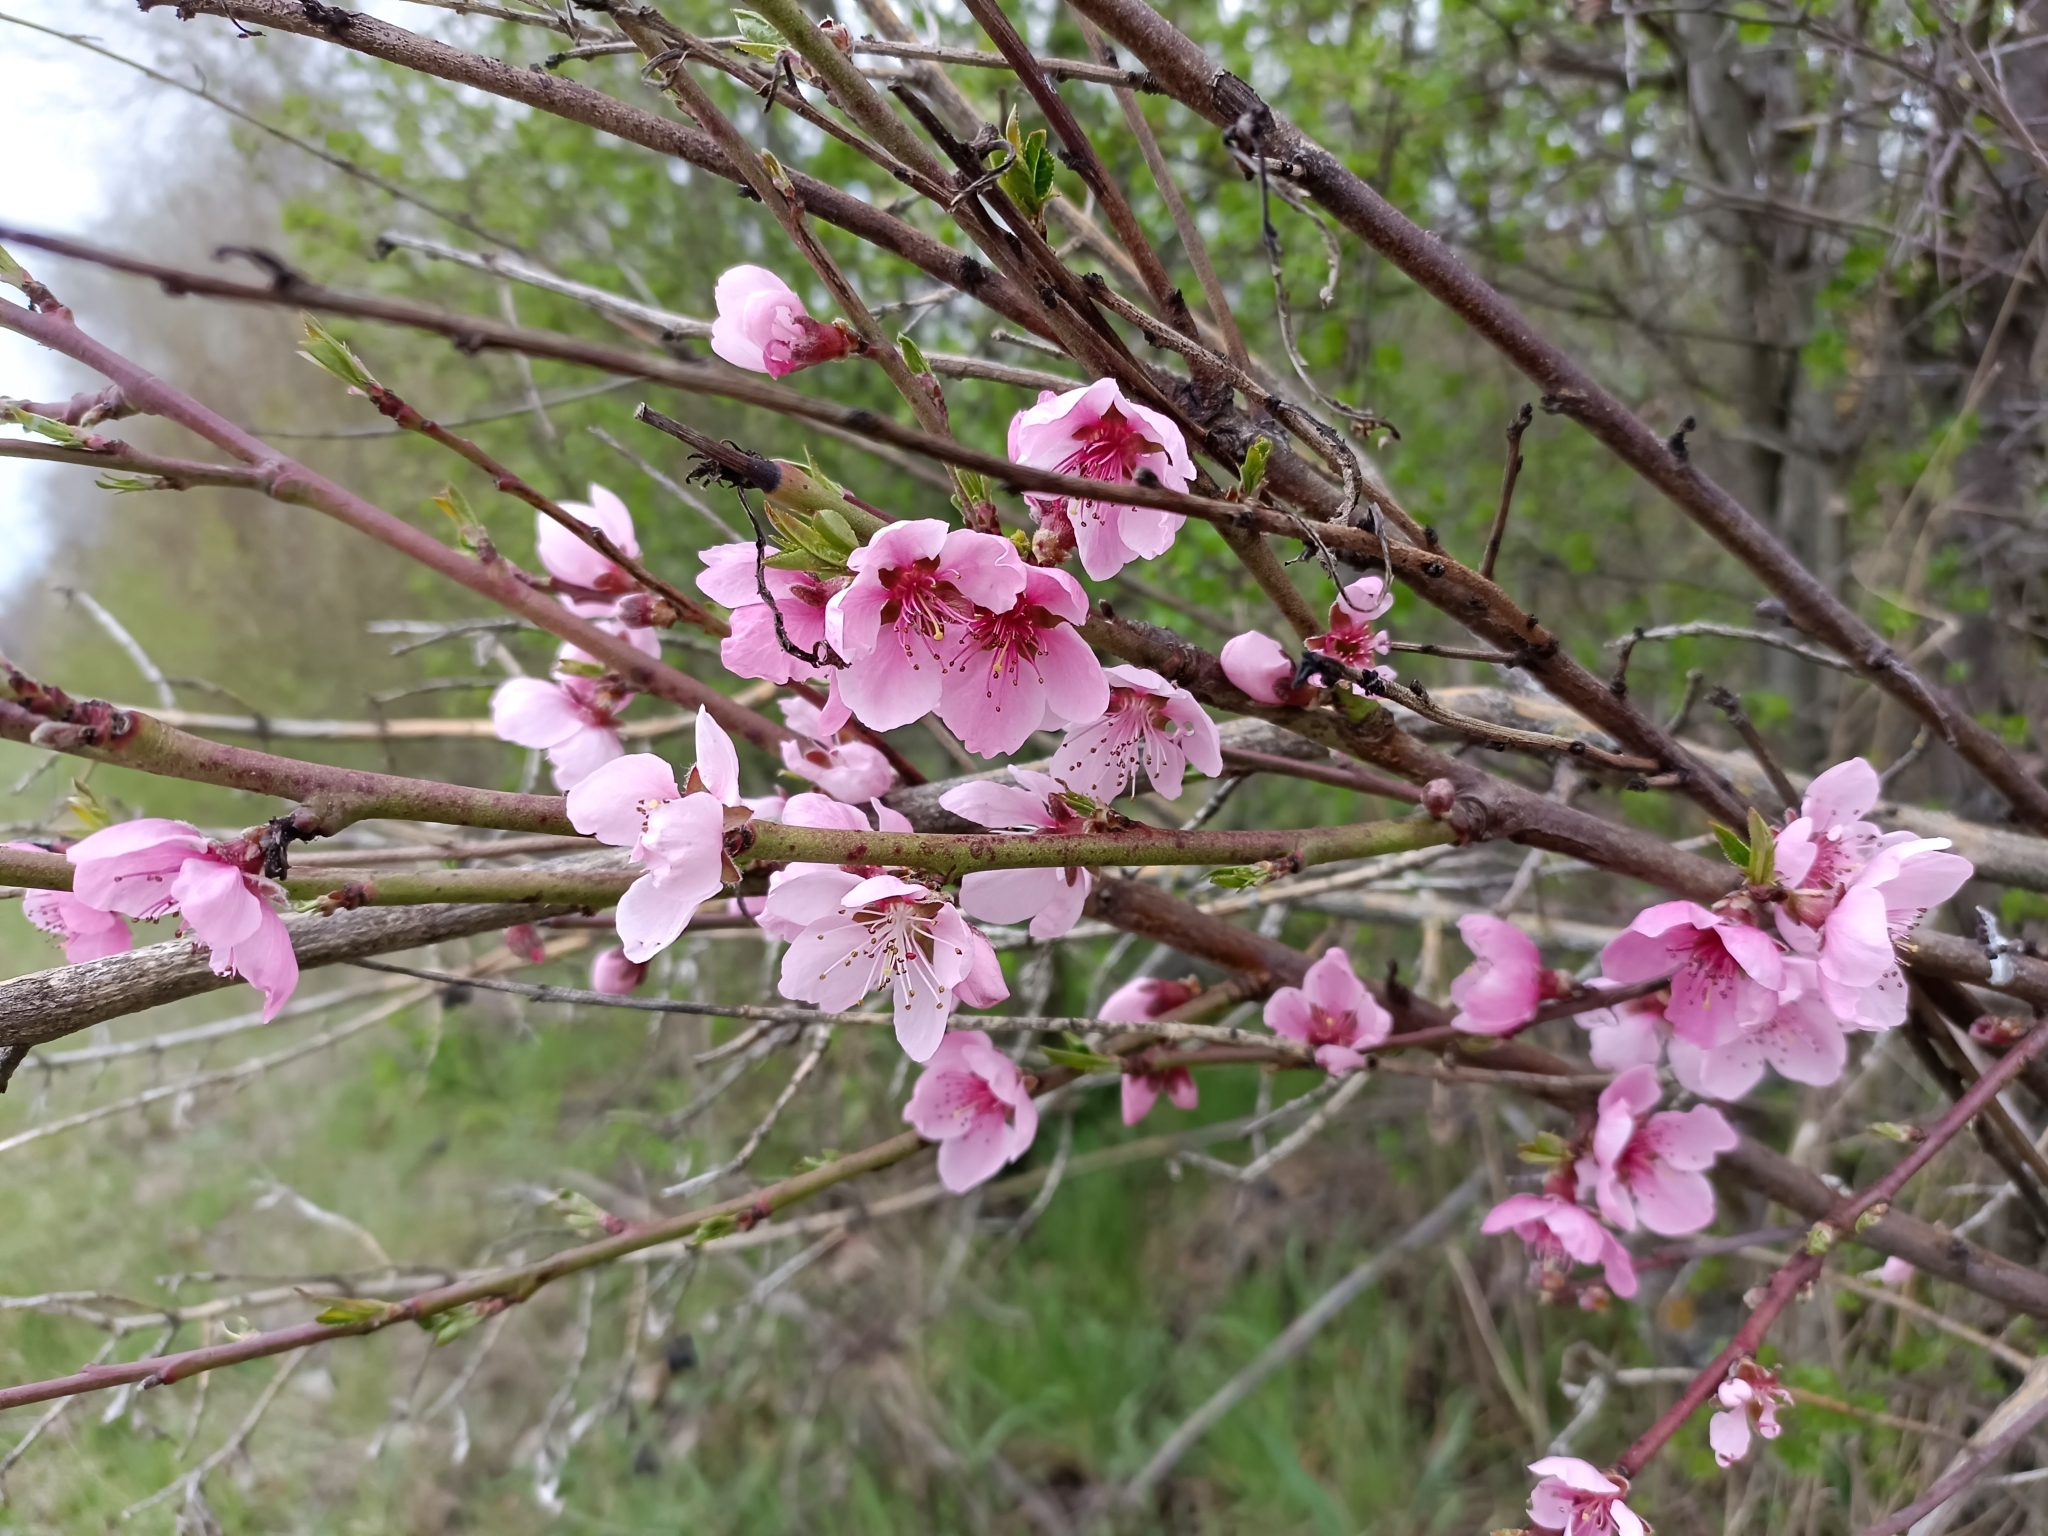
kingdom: Plantae
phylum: Tracheophyta
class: Magnoliopsida
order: Rosales
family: Rosaceae
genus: Prunus
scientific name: Prunus persica
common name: Peach
